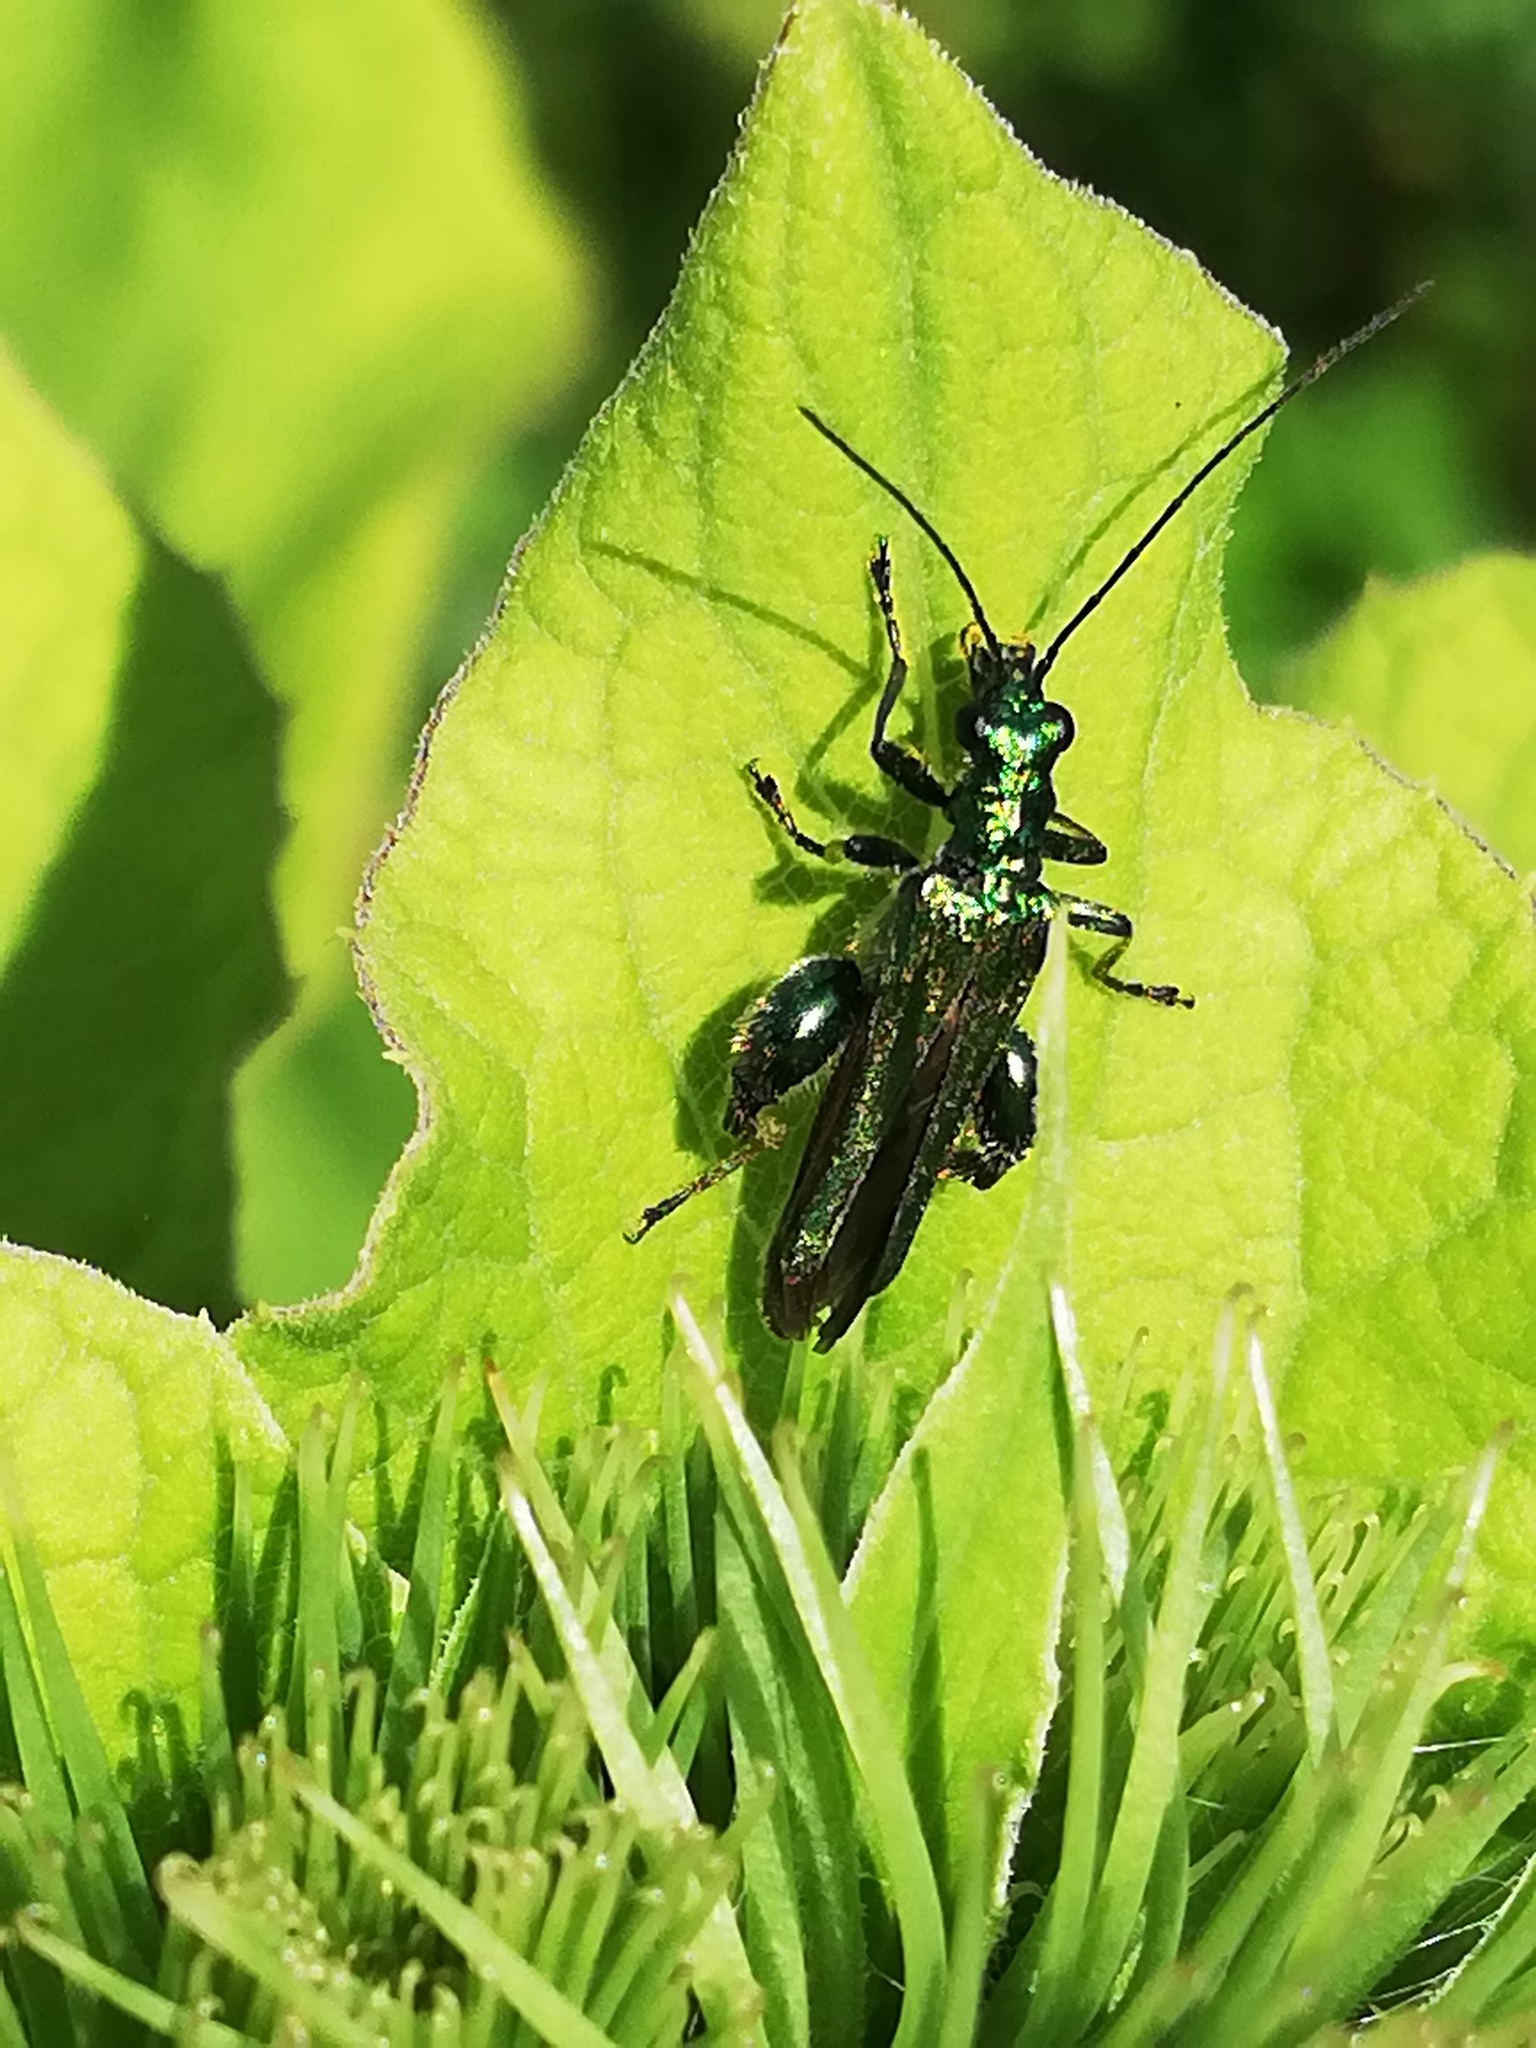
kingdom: Animalia
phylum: Arthropoda
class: Insecta
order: Coleoptera
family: Oedemeridae
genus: Oedemera
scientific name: Oedemera nobilis
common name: Swollen-thighed beetle
